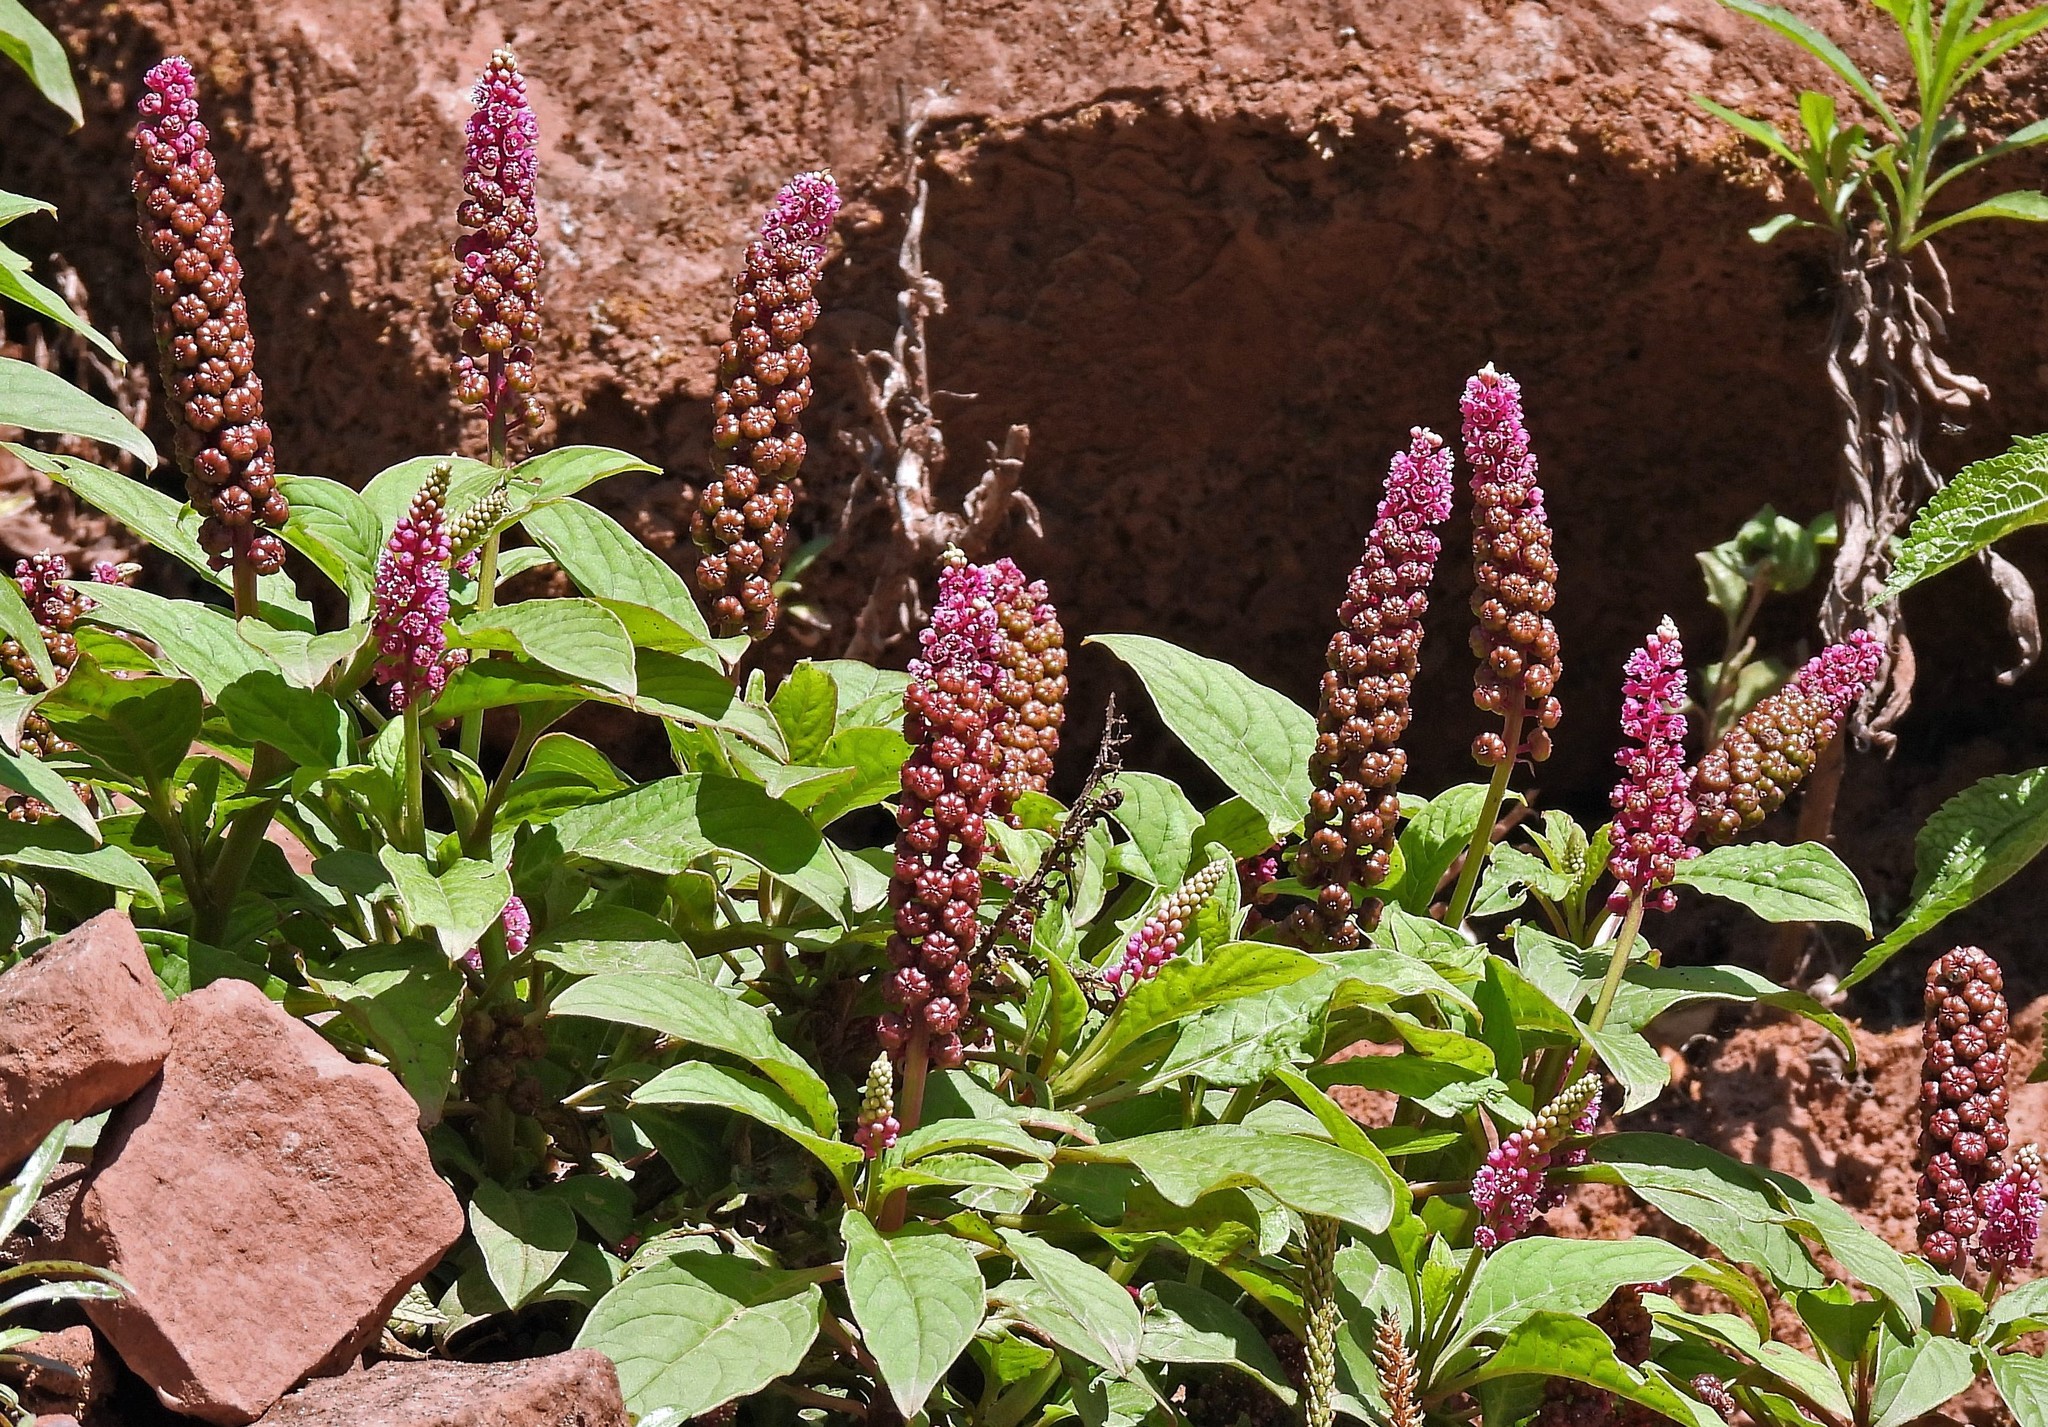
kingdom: Plantae
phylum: Tracheophyta
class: Magnoliopsida
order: Caryophyllales
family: Phytolaccaceae
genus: Phytolacca
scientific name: Phytolacca bogotensis
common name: Southern pokeweed
